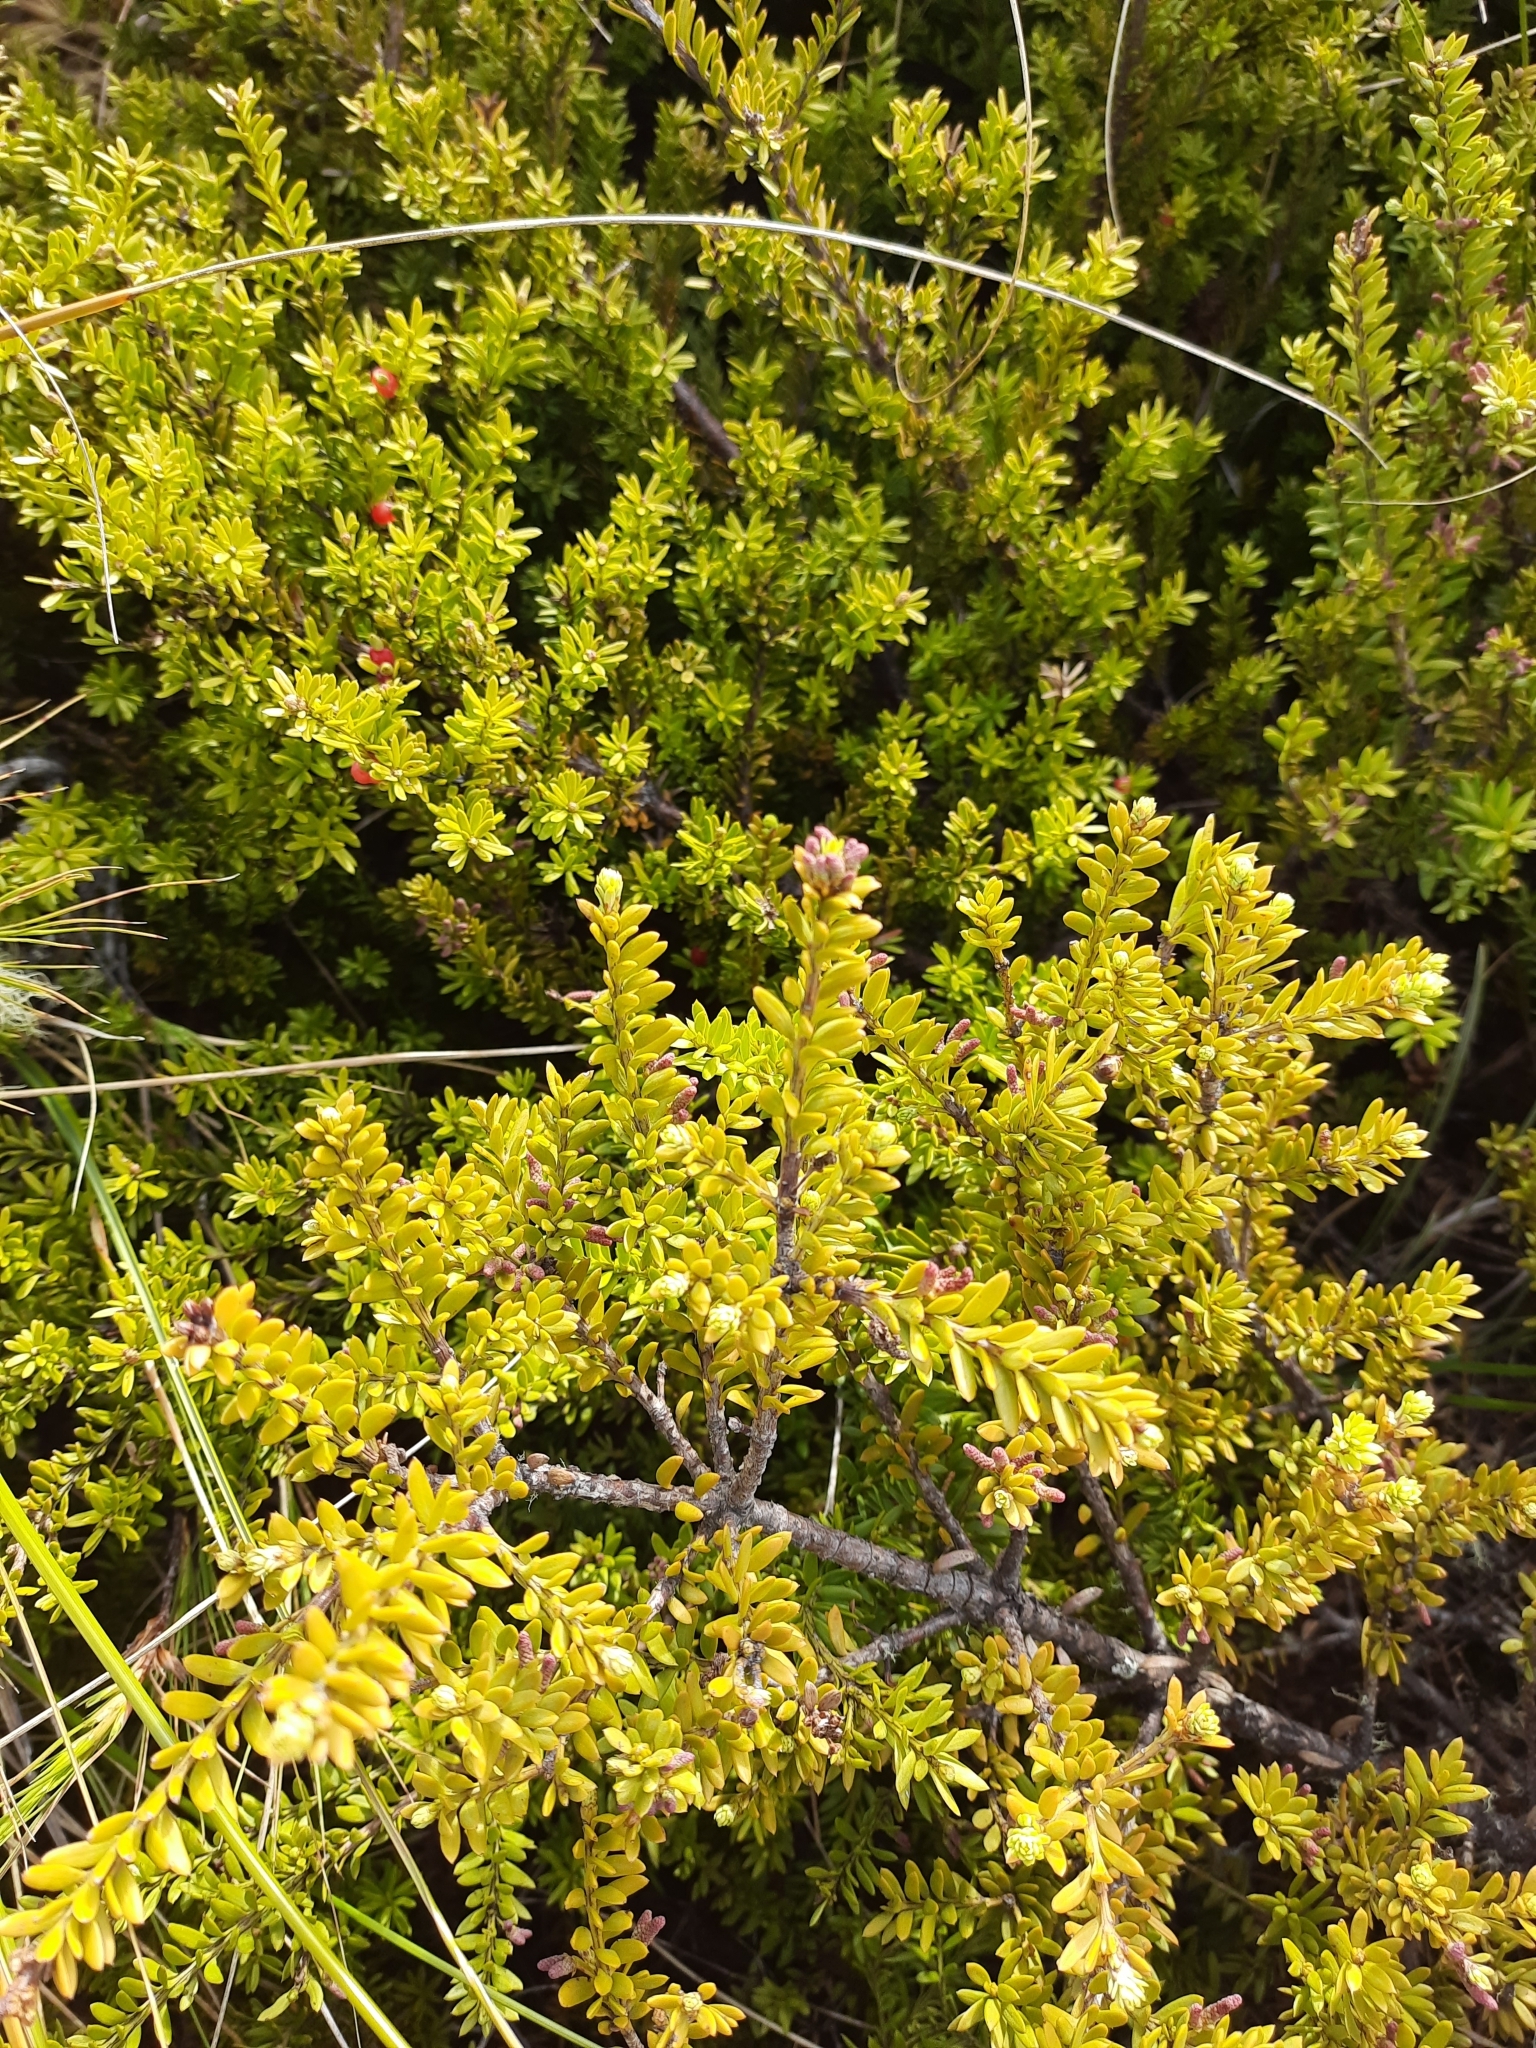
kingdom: Plantae
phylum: Tracheophyta
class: Pinopsida
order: Pinales
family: Podocarpaceae
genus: Podocarpus
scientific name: Podocarpus nivalis
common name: Alpine totara
